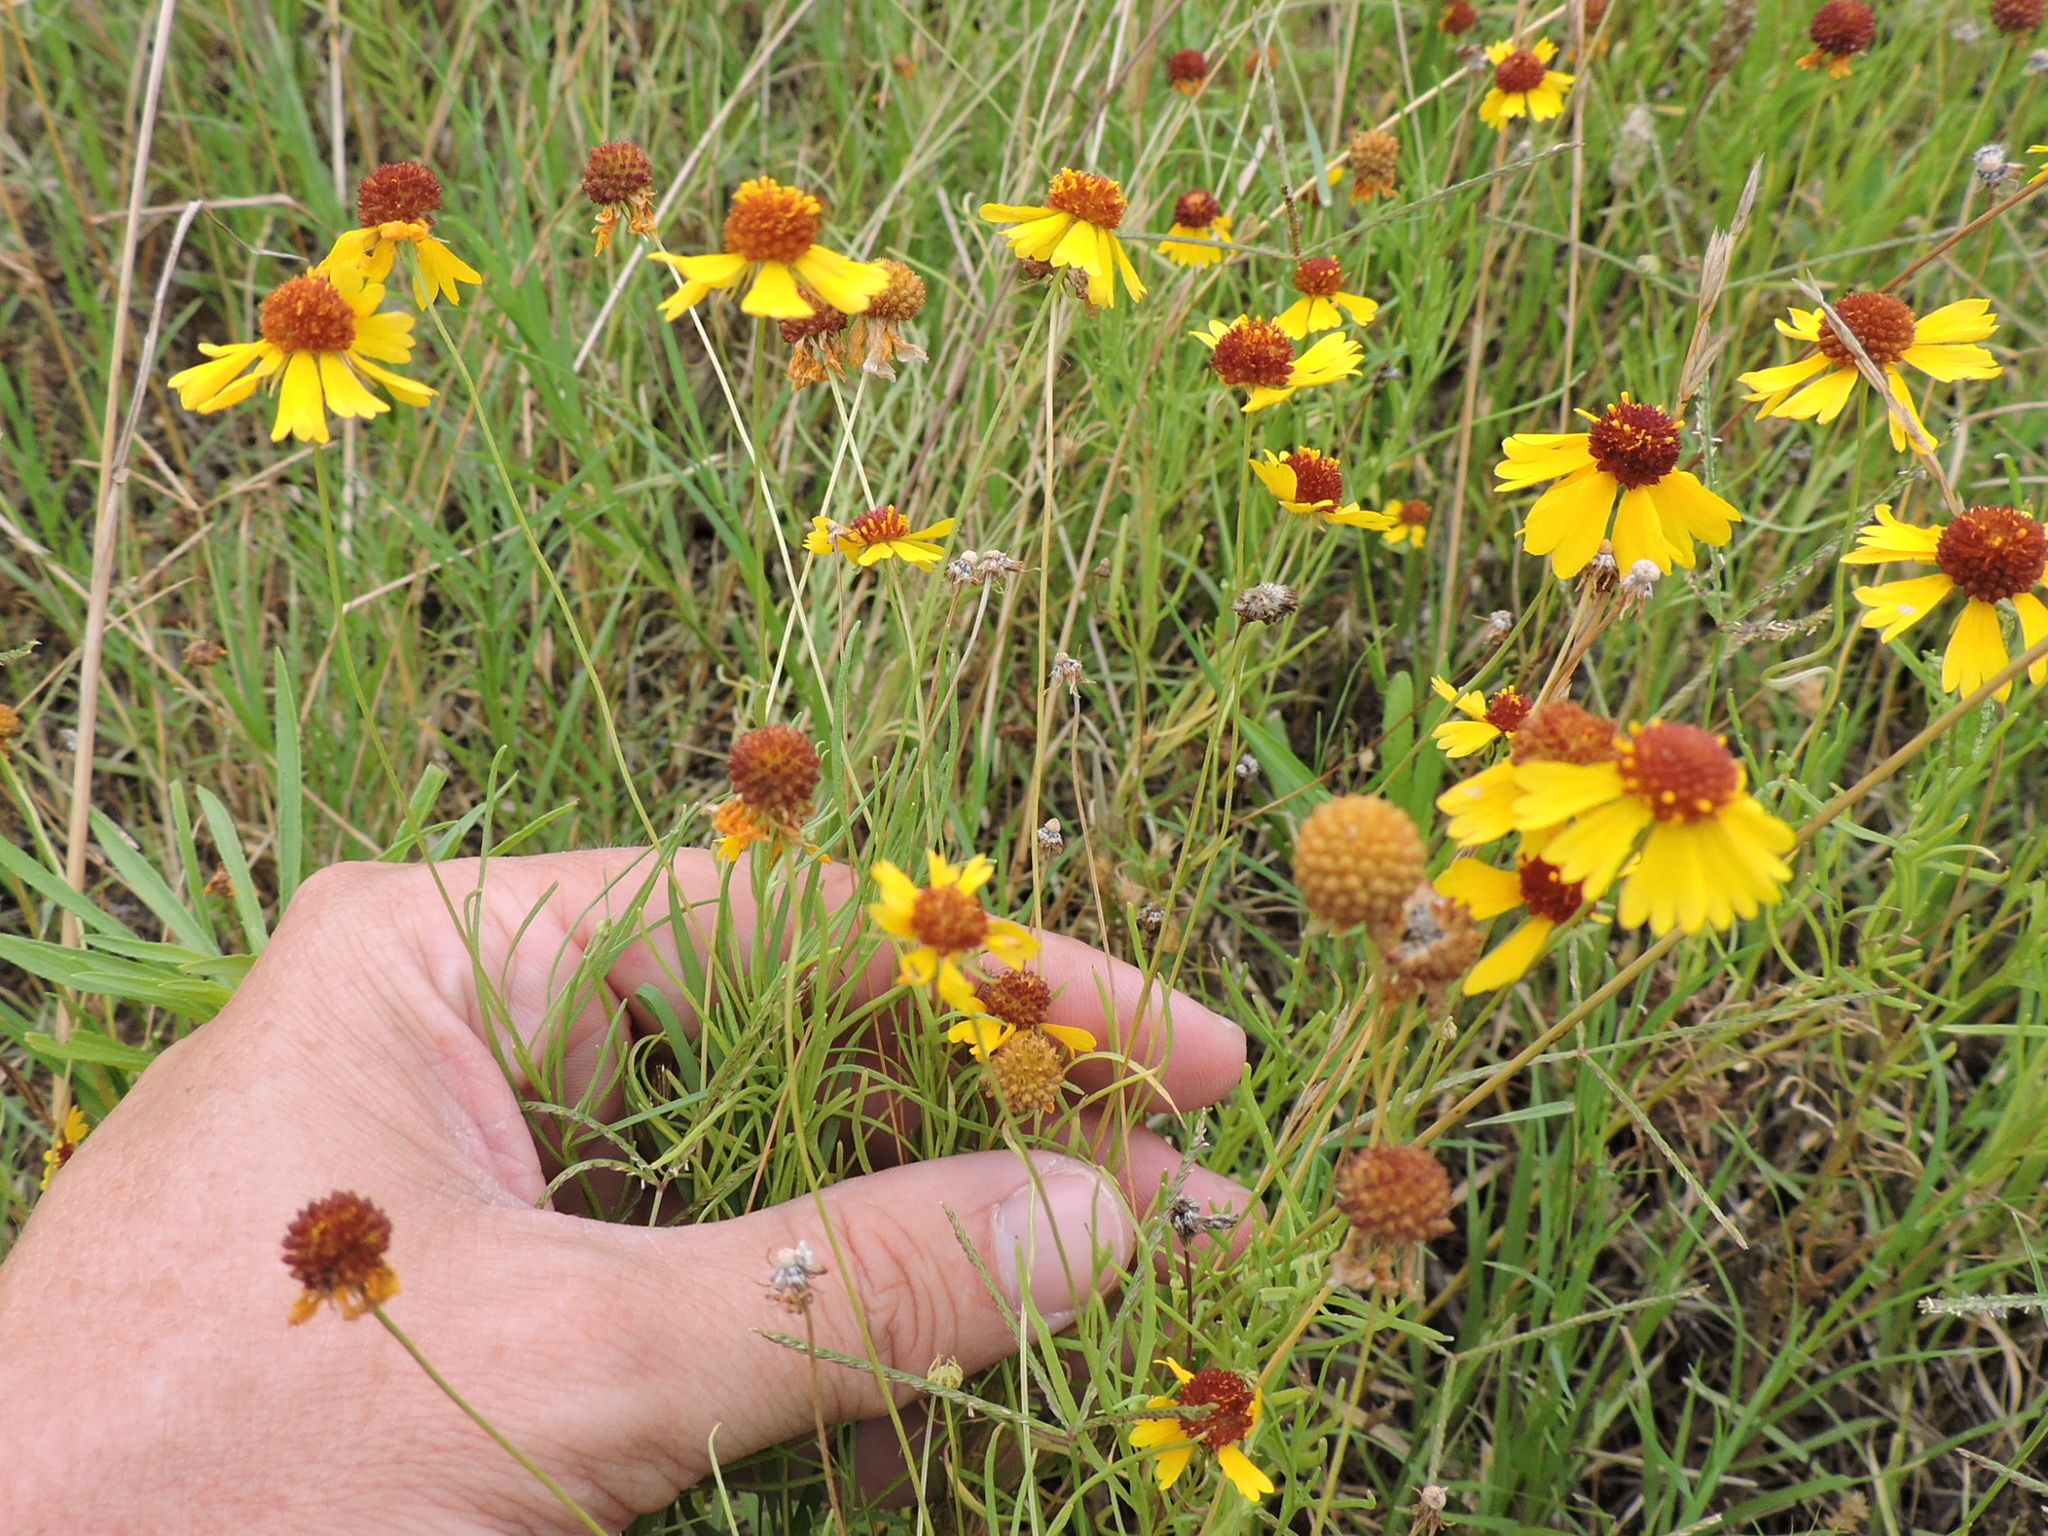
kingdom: Plantae
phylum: Tracheophyta
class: Magnoliopsida
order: Asterales
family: Asteraceae
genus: Helenium
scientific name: Helenium amarum
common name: Bitter sneezeweed
